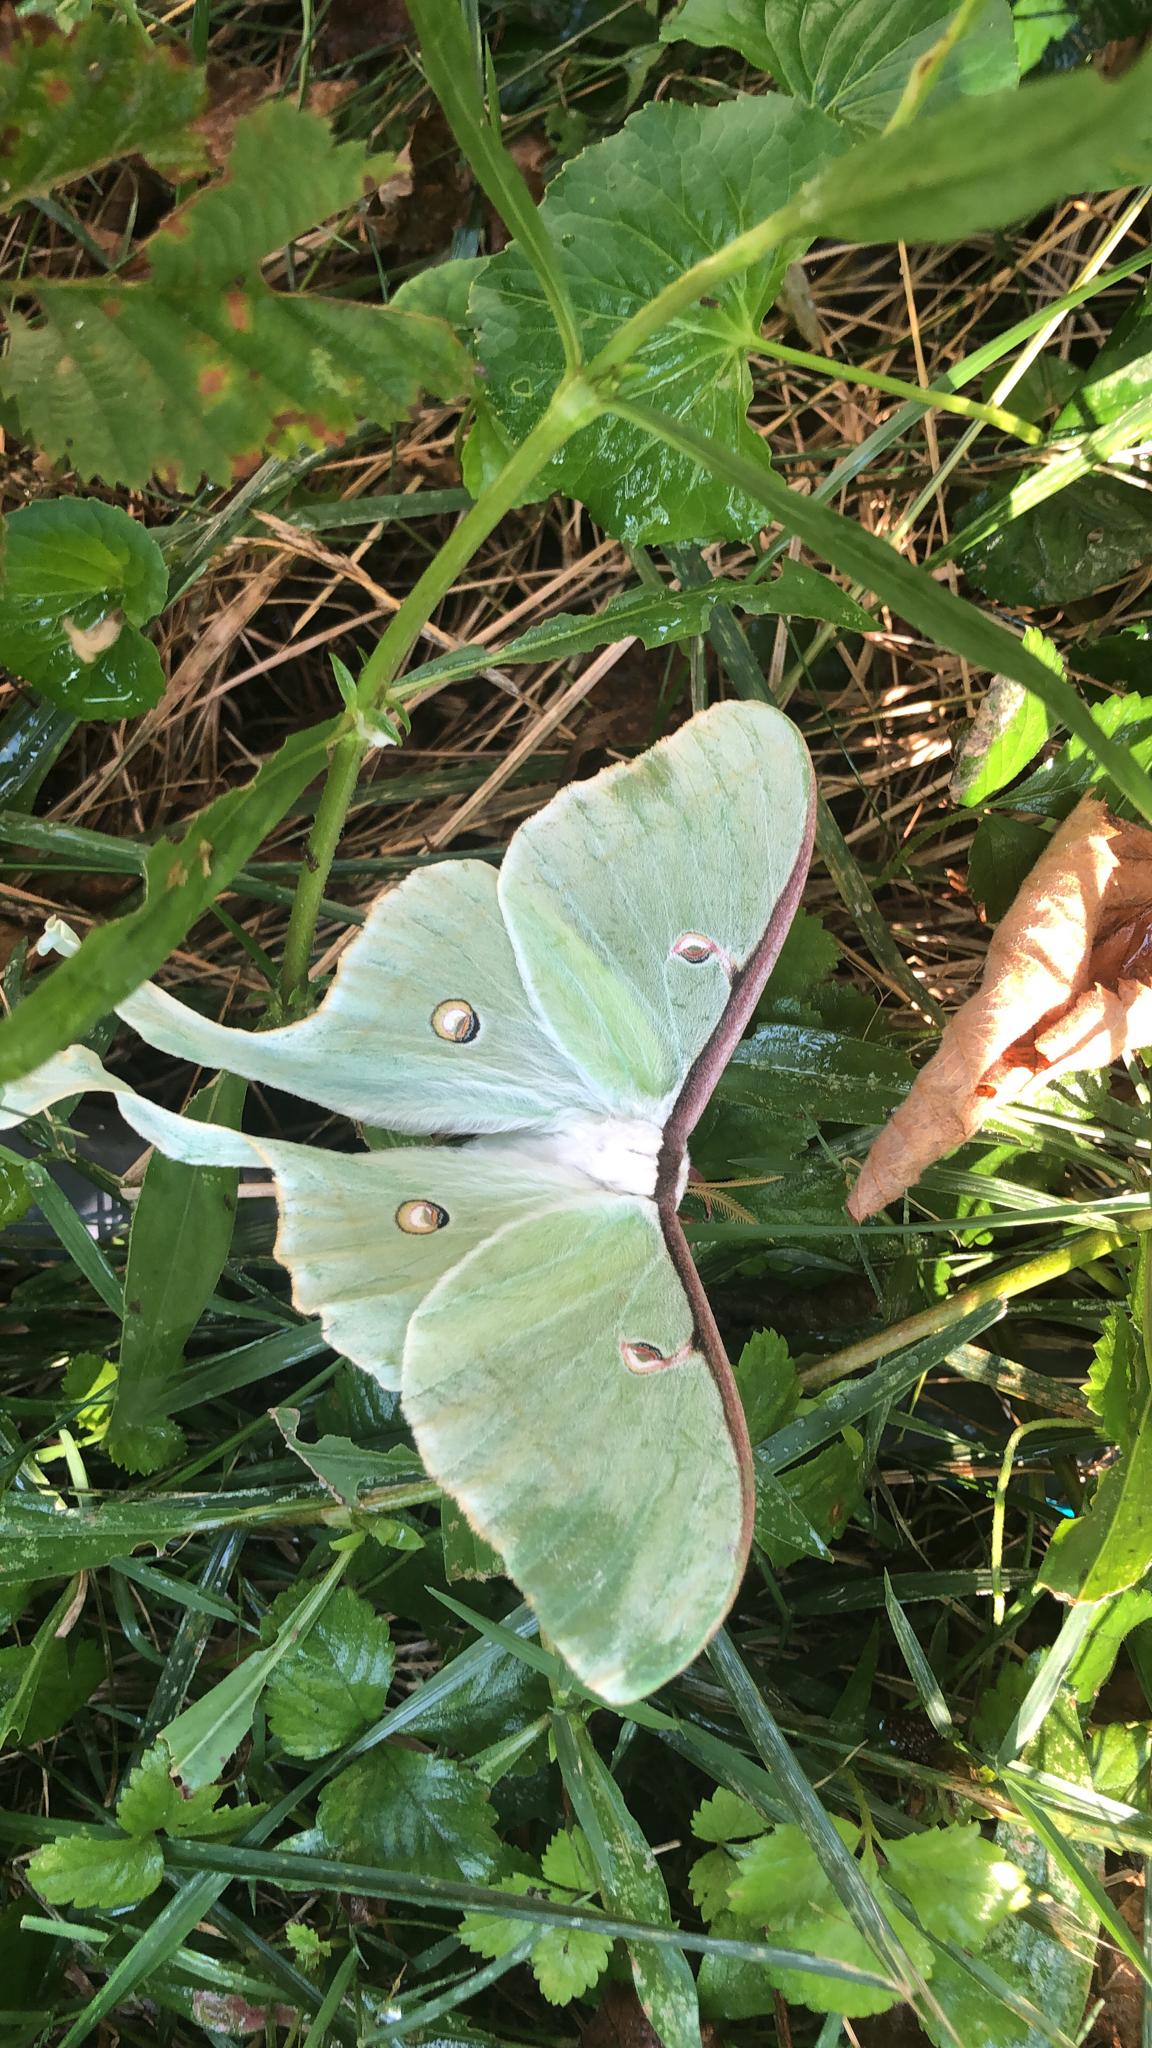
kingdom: Animalia
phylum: Arthropoda
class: Insecta
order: Lepidoptera
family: Saturniidae
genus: Actias
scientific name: Actias luna
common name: Luna moth
